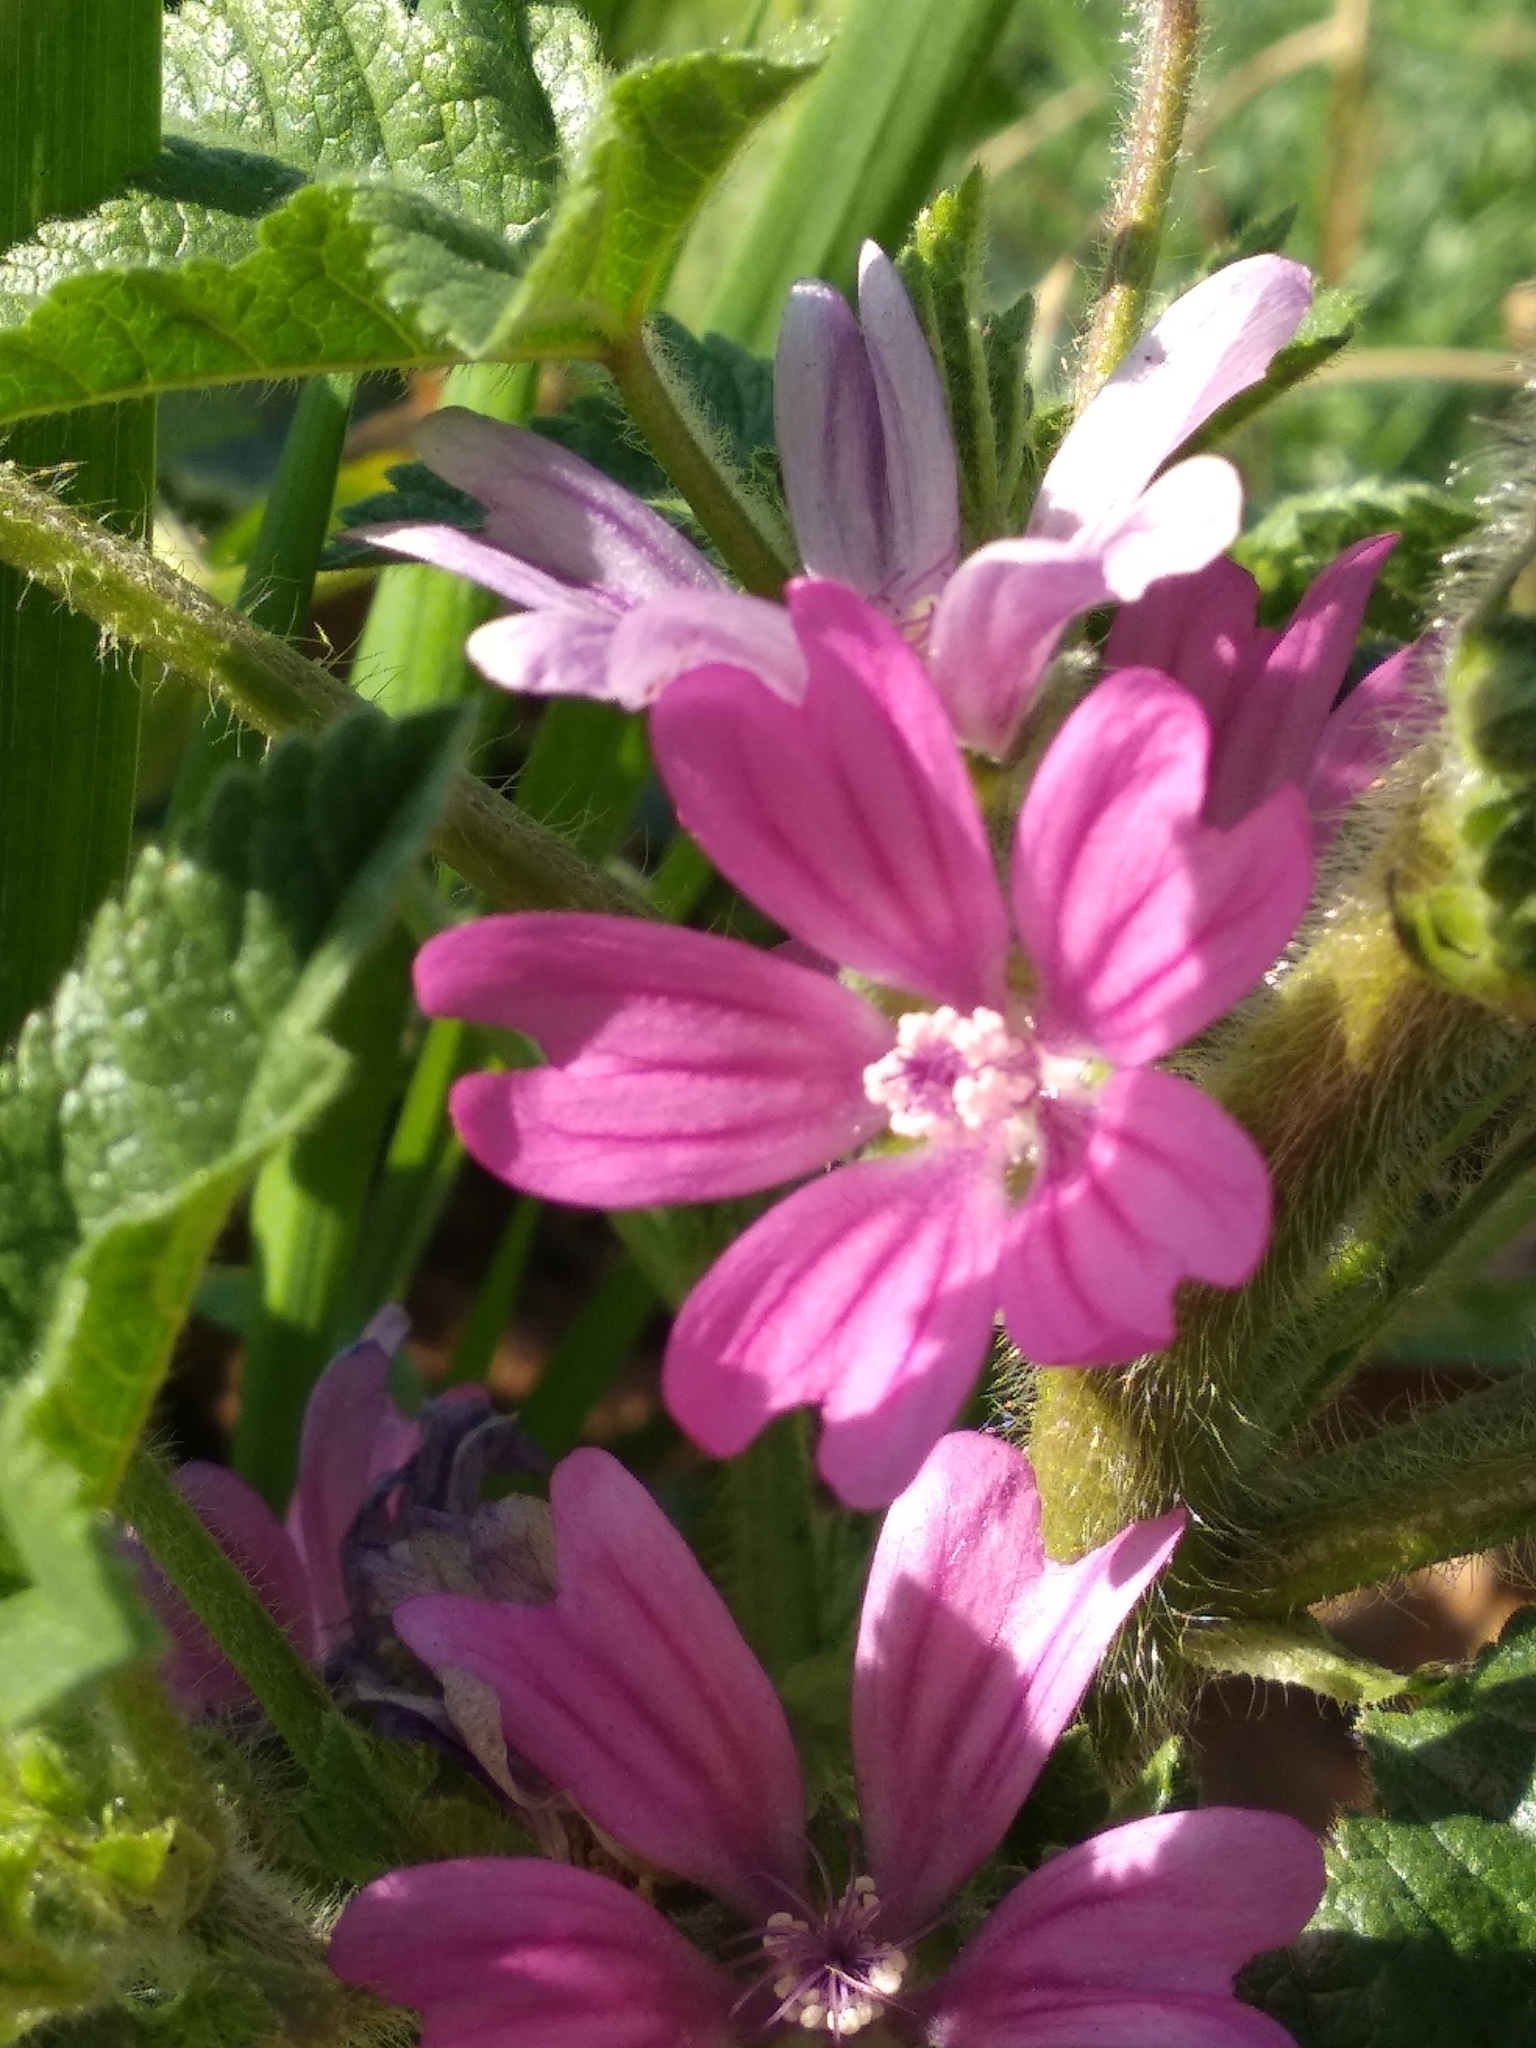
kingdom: Plantae
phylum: Tracheophyta
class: Magnoliopsida
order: Malvales
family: Malvaceae
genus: Malva
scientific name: Malva sylvestris
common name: Common mallow
